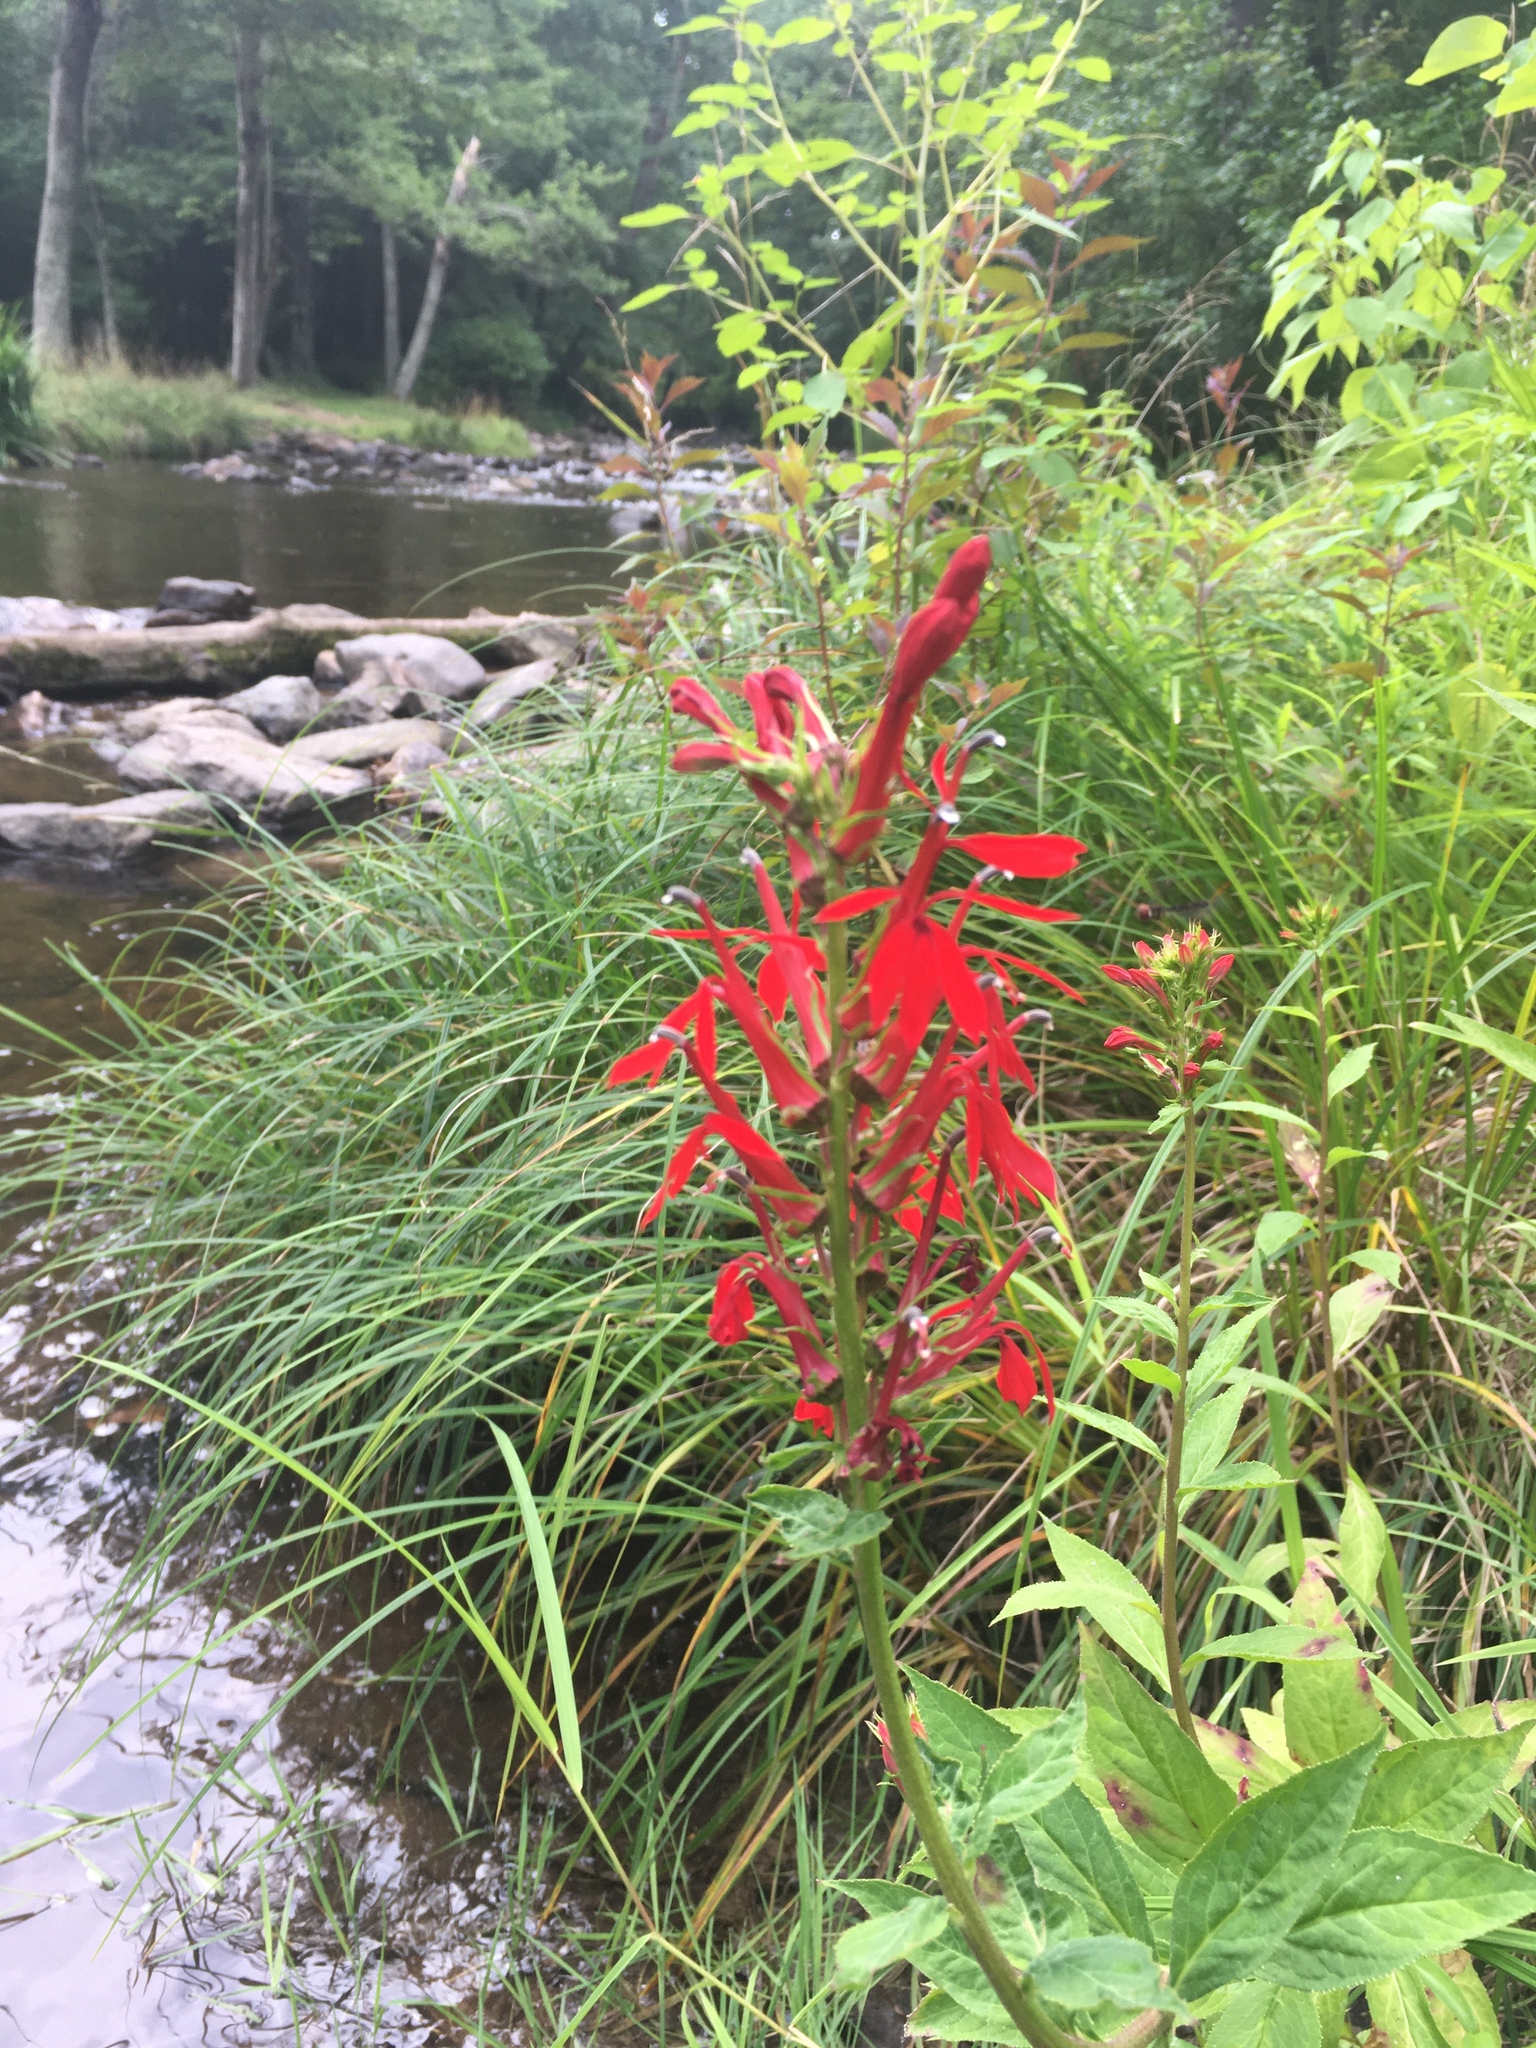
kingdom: Plantae
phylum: Tracheophyta
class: Magnoliopsida
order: Asterales
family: Campanulaceae
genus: Lobelia
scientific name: Lobelia cardinalis
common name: Cardinal flower
